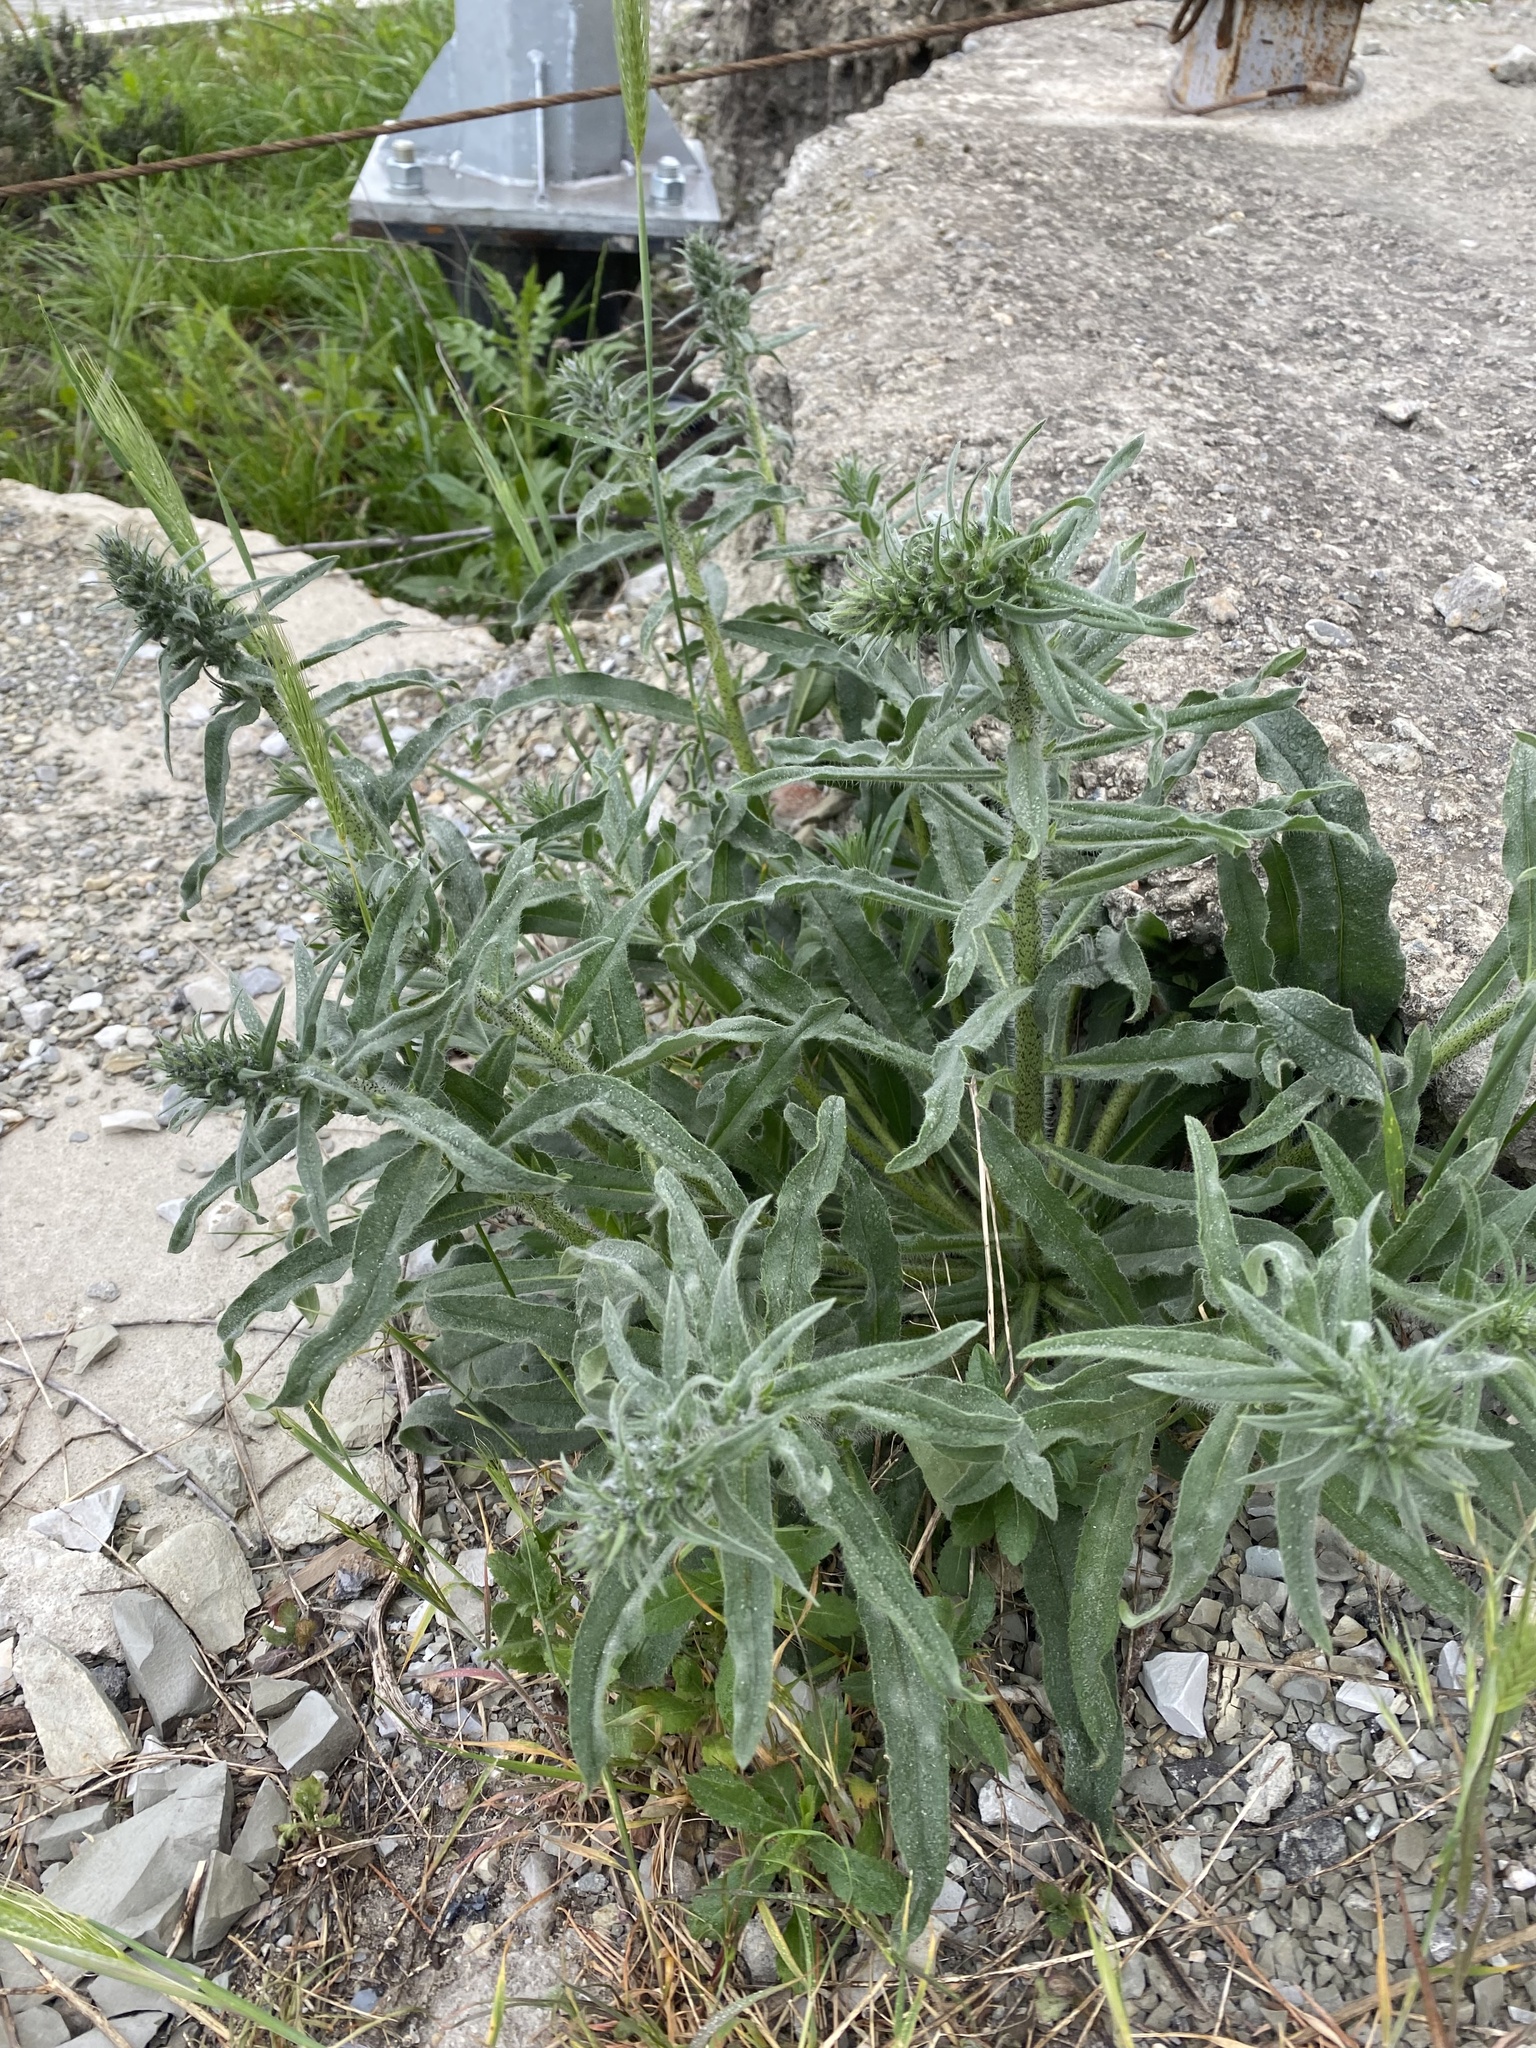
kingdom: Plantae
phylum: Tracheophyta
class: Magnoliopsida
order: Boraginales
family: Boraginaceae
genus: Echium
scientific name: Echium vulgare
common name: Common viper's bugloss
